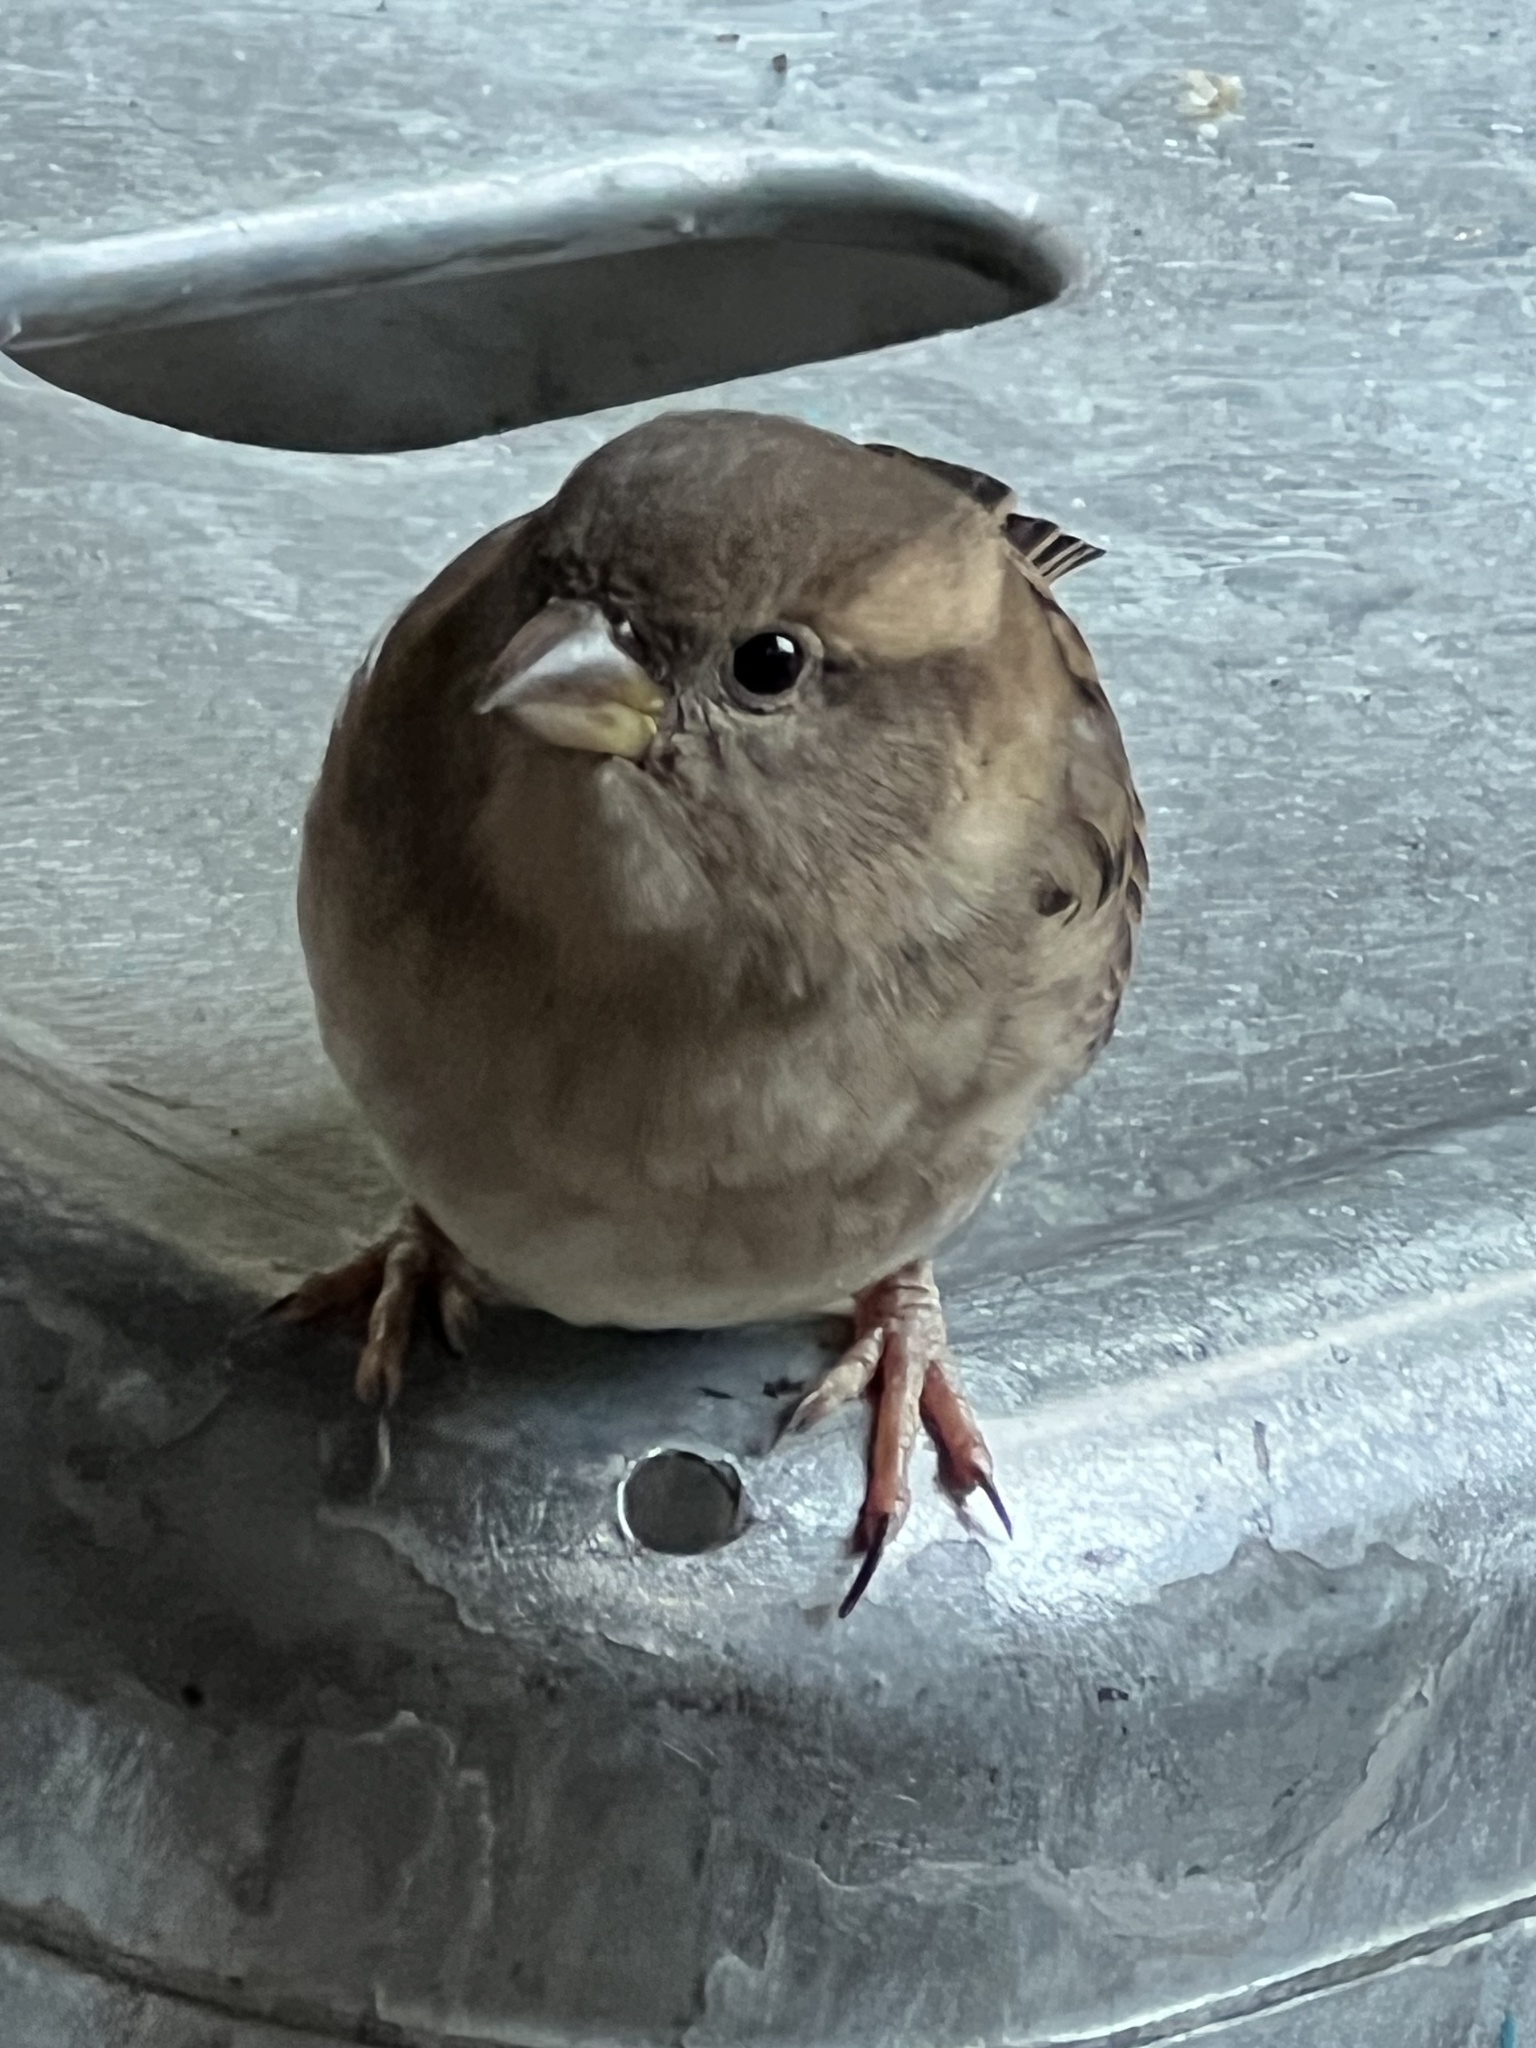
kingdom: Animalia
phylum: Chordata
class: Aves
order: Passeriformes
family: Passeridae
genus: Passer
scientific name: Passer domesticus
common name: House sparrow
